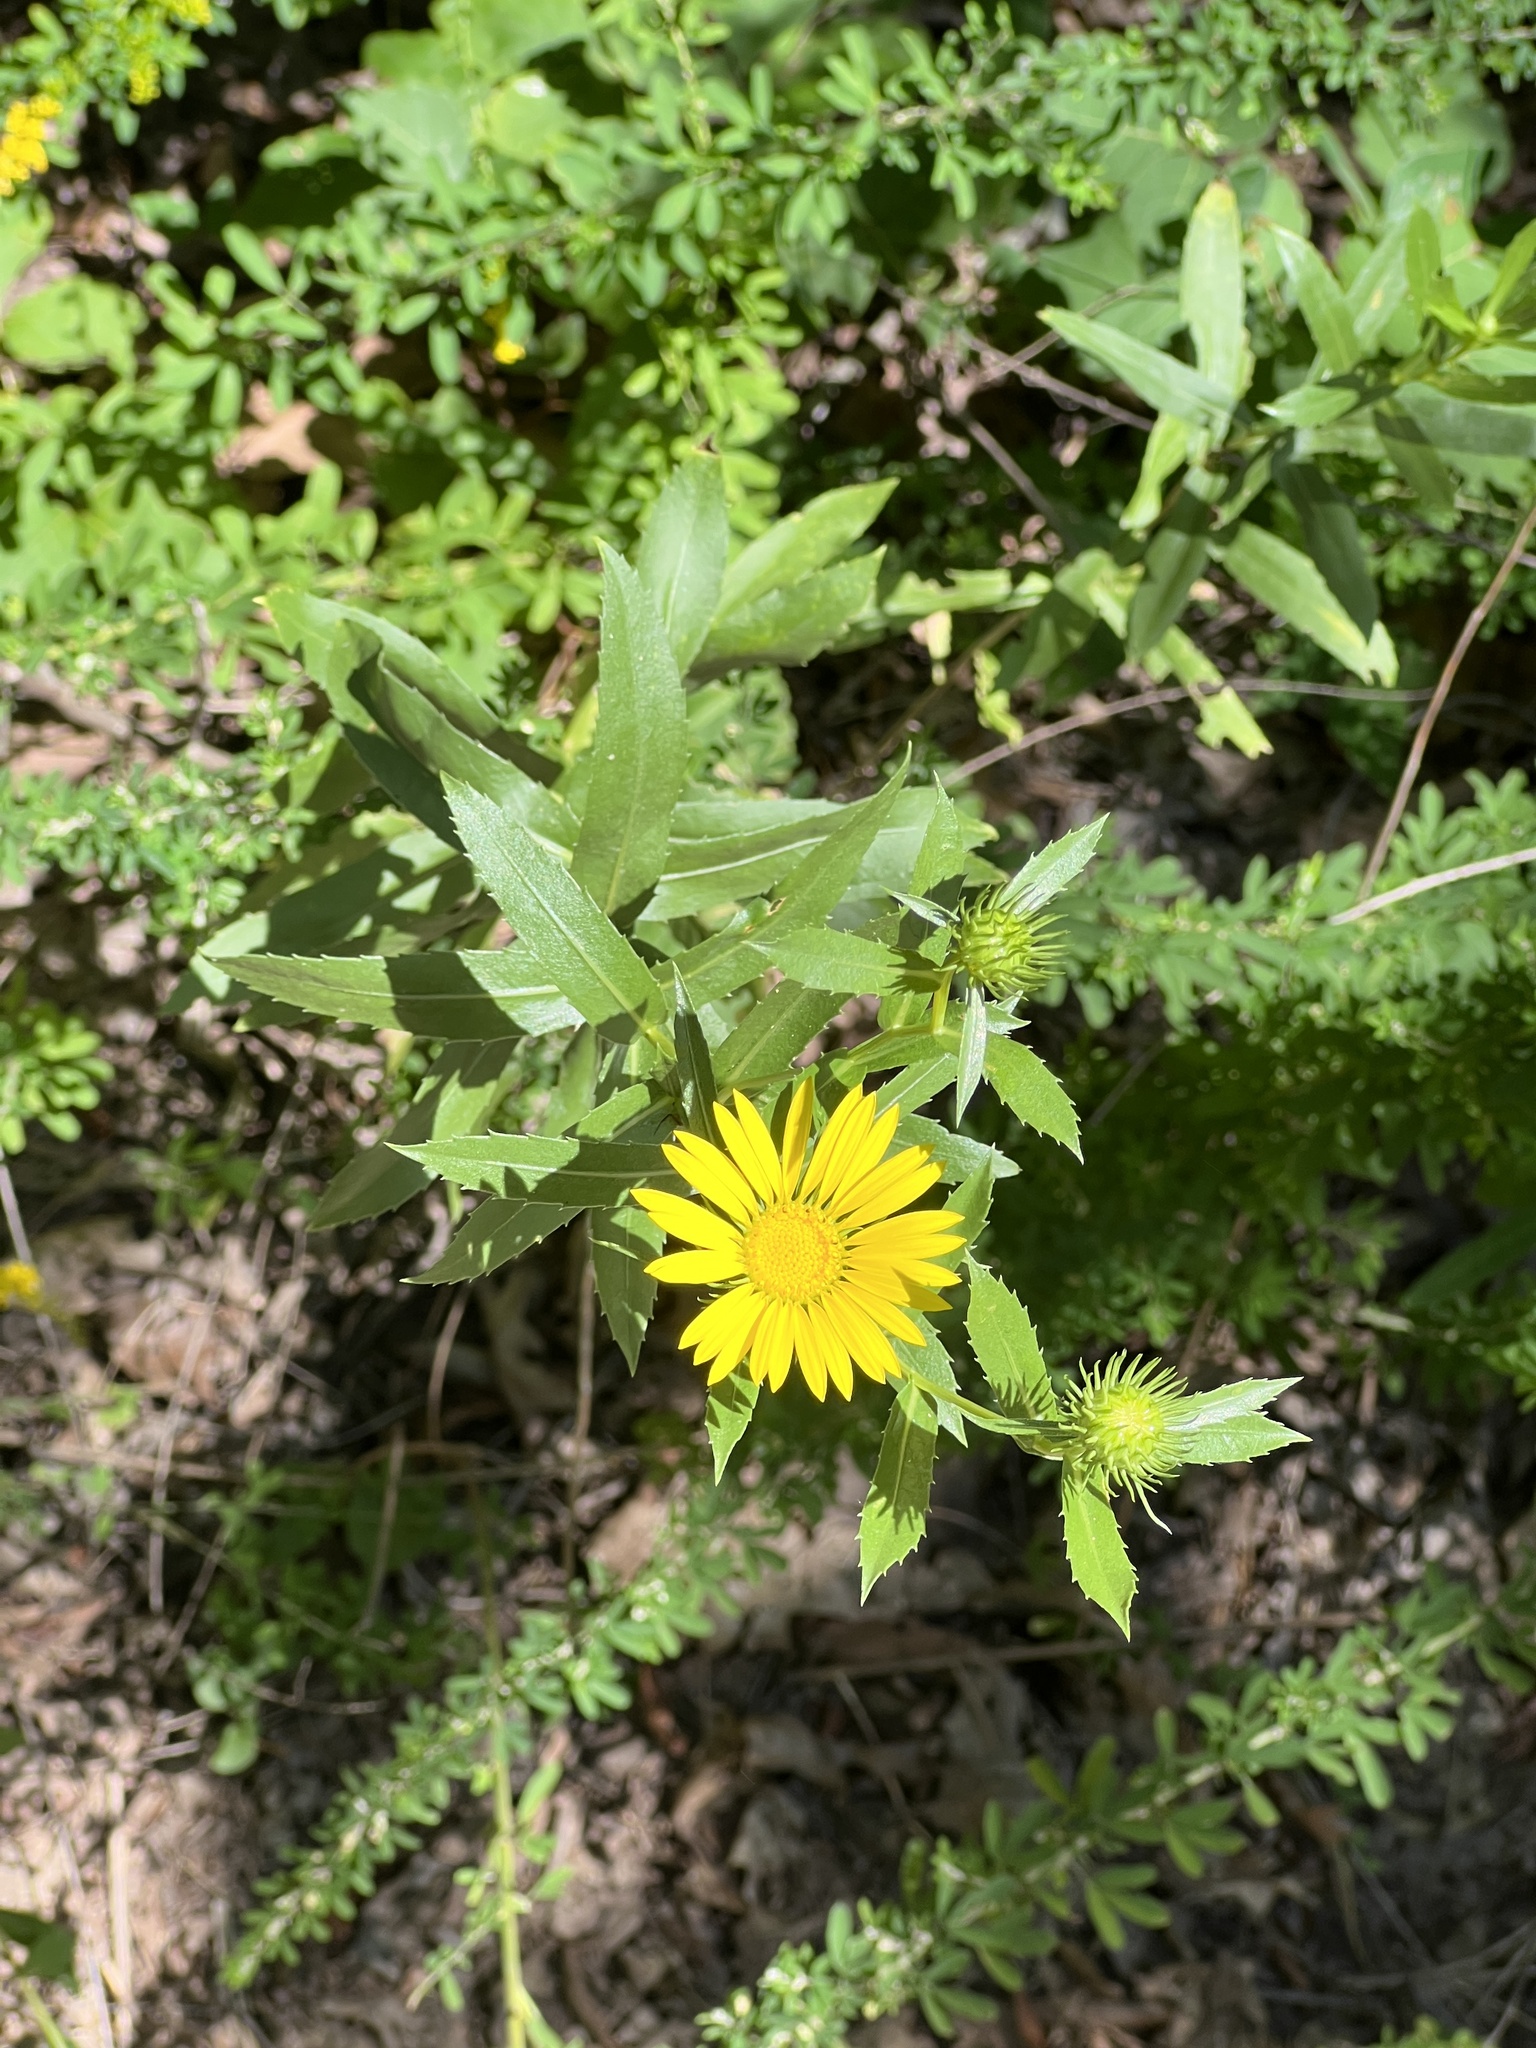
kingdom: Plantae
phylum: Tracheophyta
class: Magnoliopsida
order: Asterales
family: Asteraceae
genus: Grindelia
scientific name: Grindelia lanceolata
